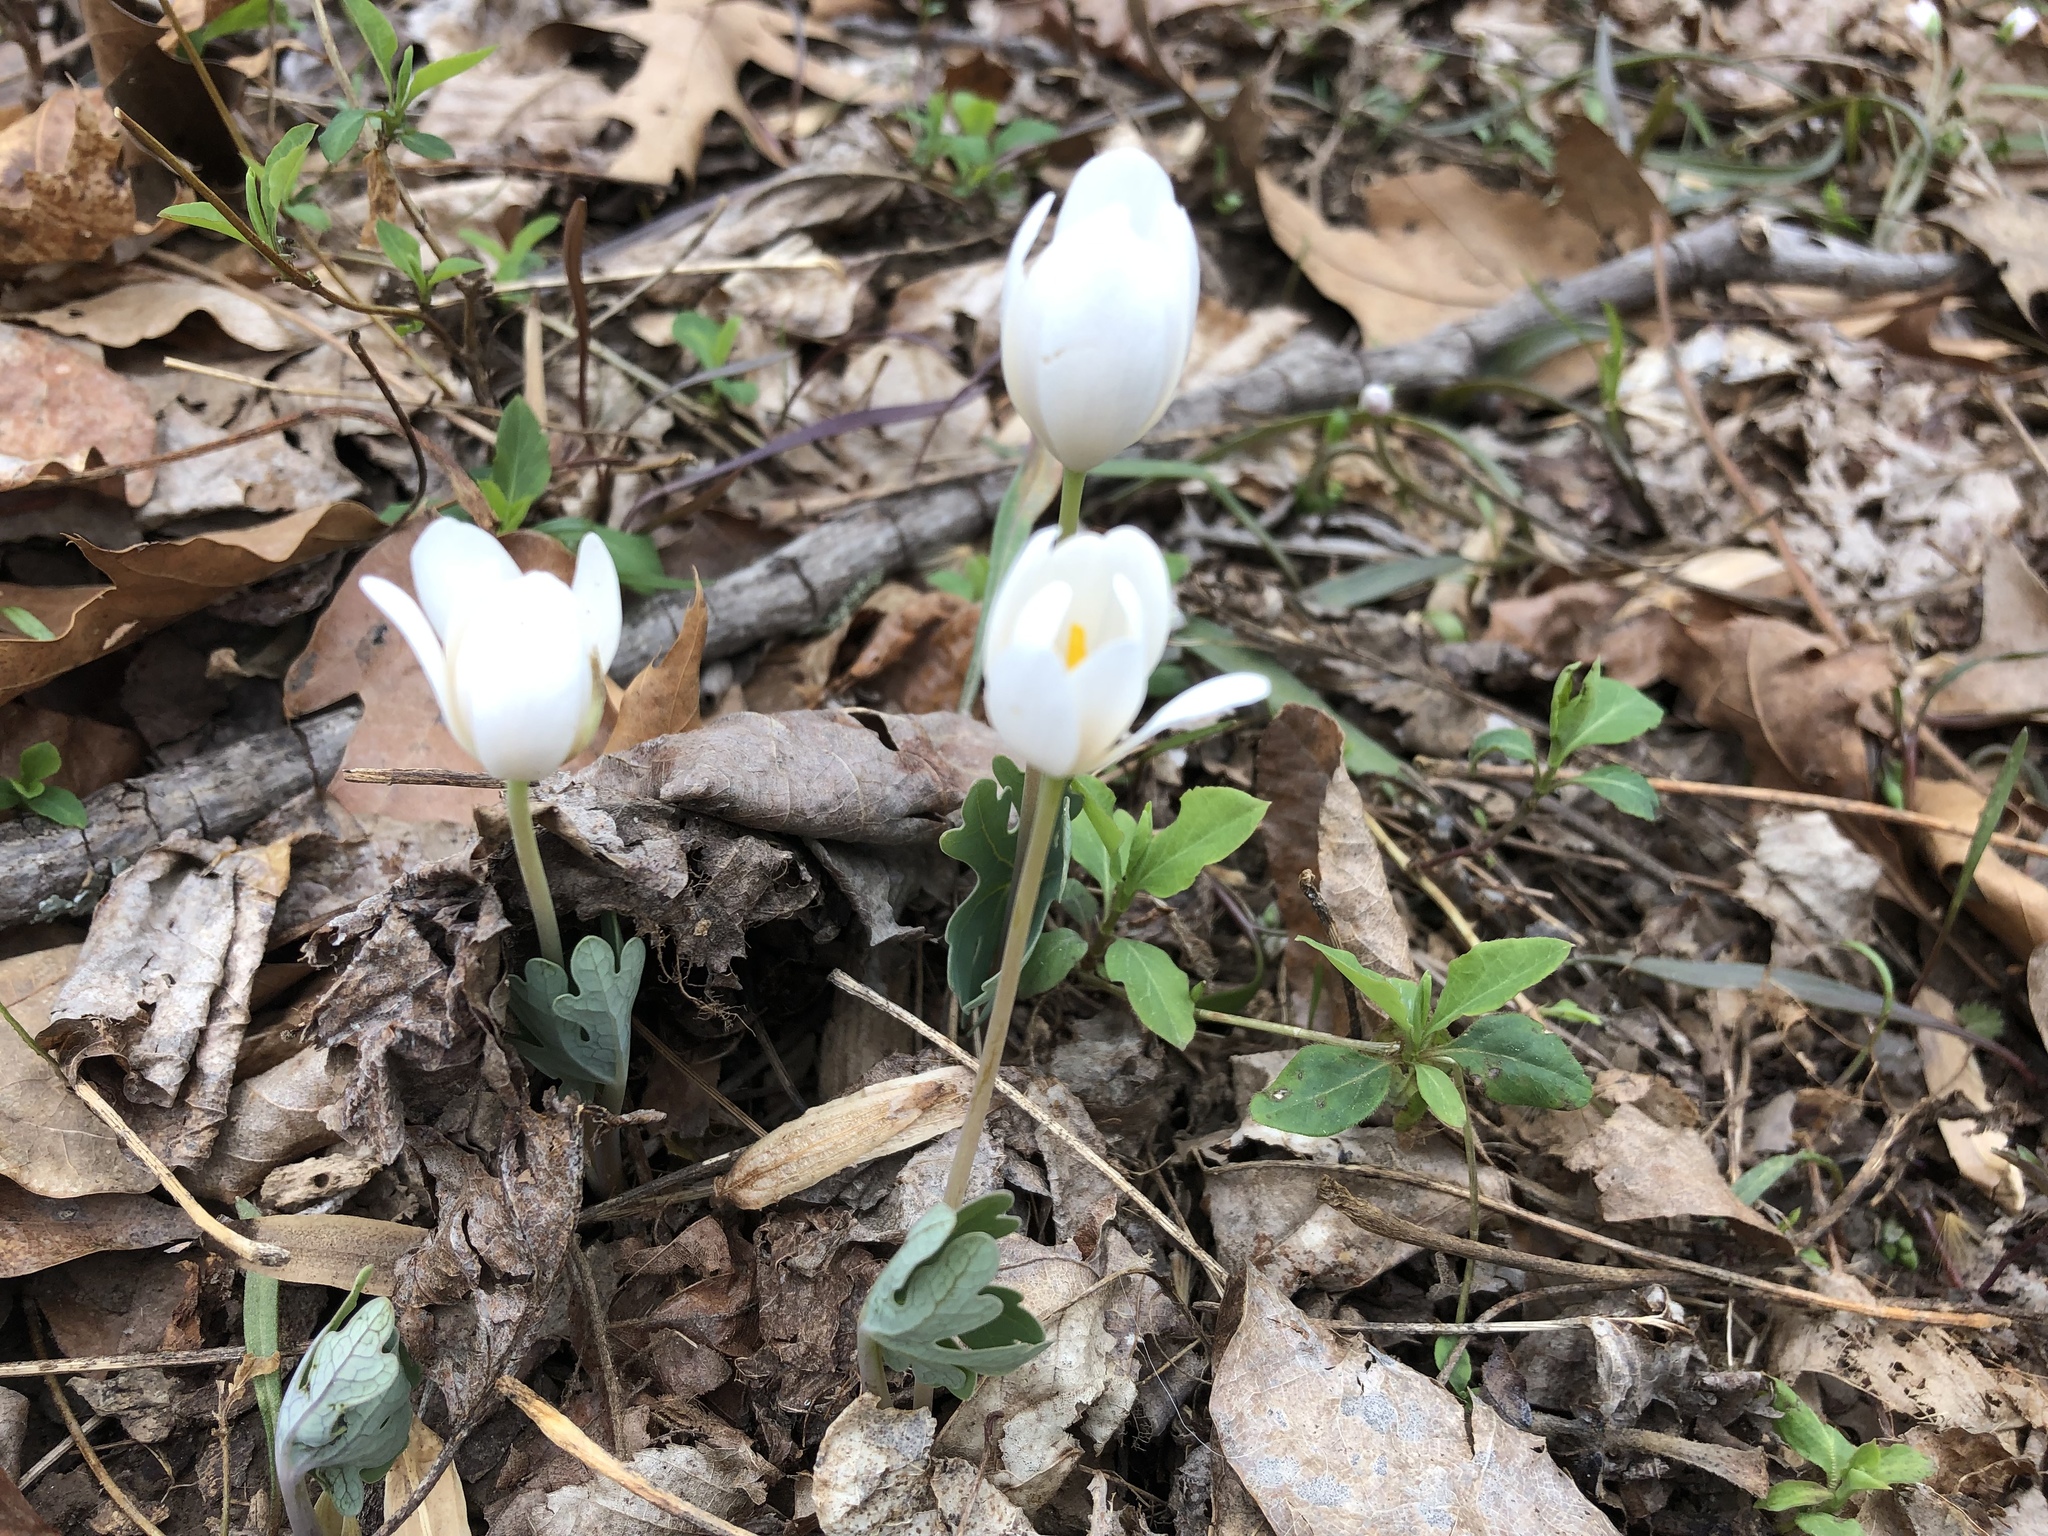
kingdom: Plantae
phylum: Tracheophyta
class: Magnoliopsida
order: Ranunculales
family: Papaveraceae
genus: Sanguinaria
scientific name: Sanguinaria canadensis
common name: Bloodroot
